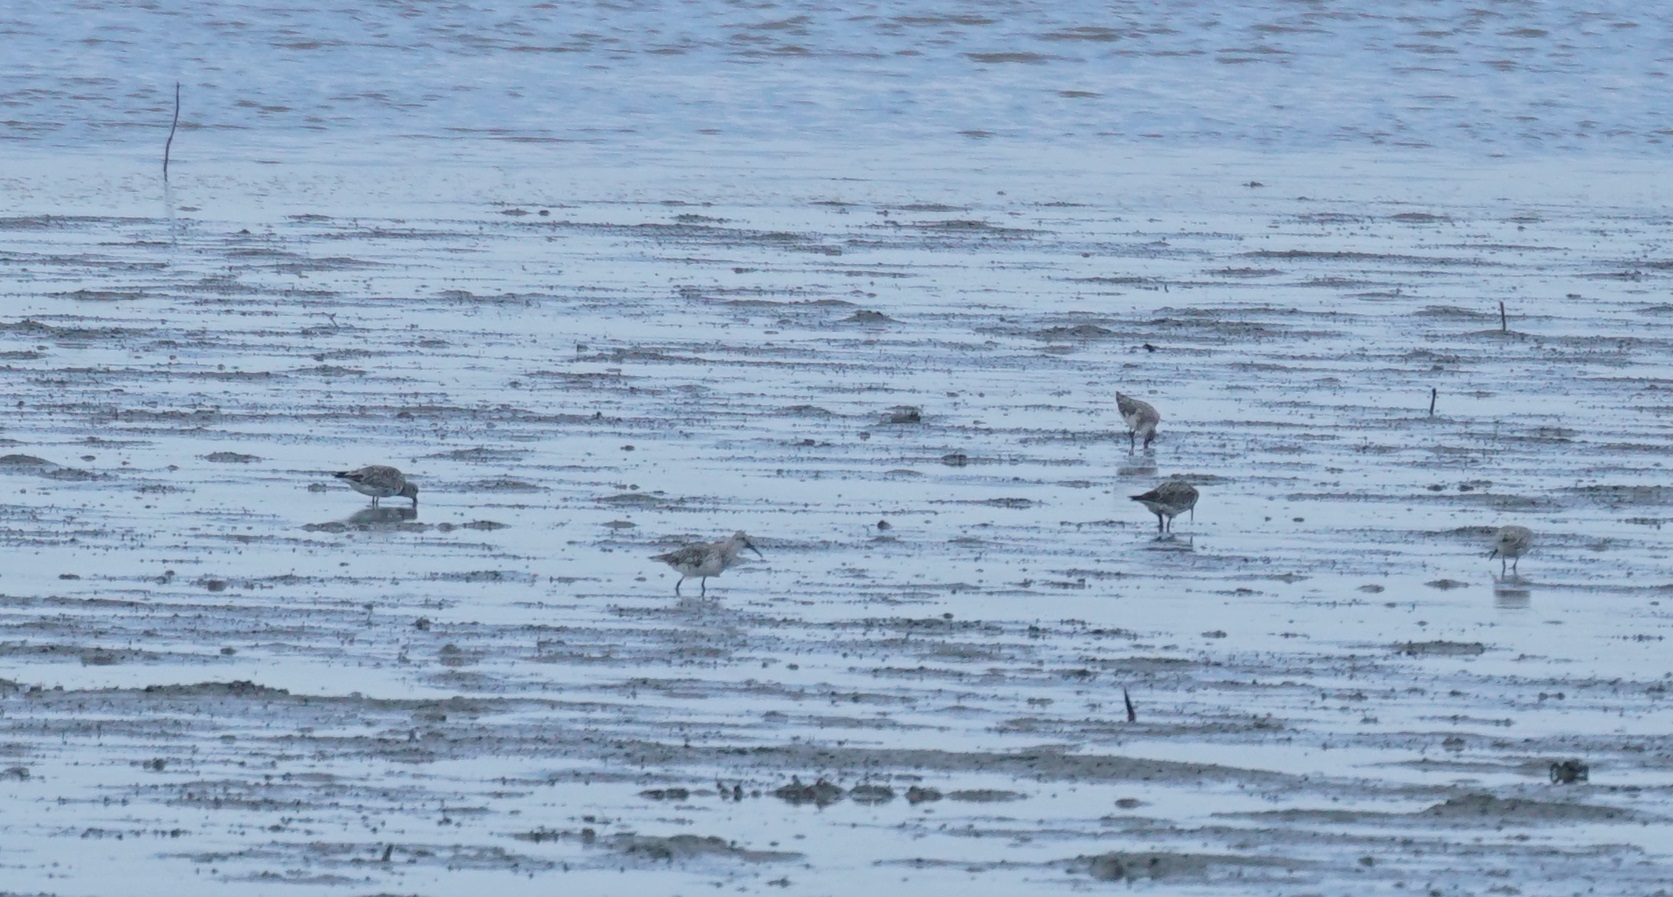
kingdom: Animalia
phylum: Chordata
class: Aves
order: Charadriiformes
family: Scolopacidae
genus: Calidris
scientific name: Calidris tenuirostris
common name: Great knot
